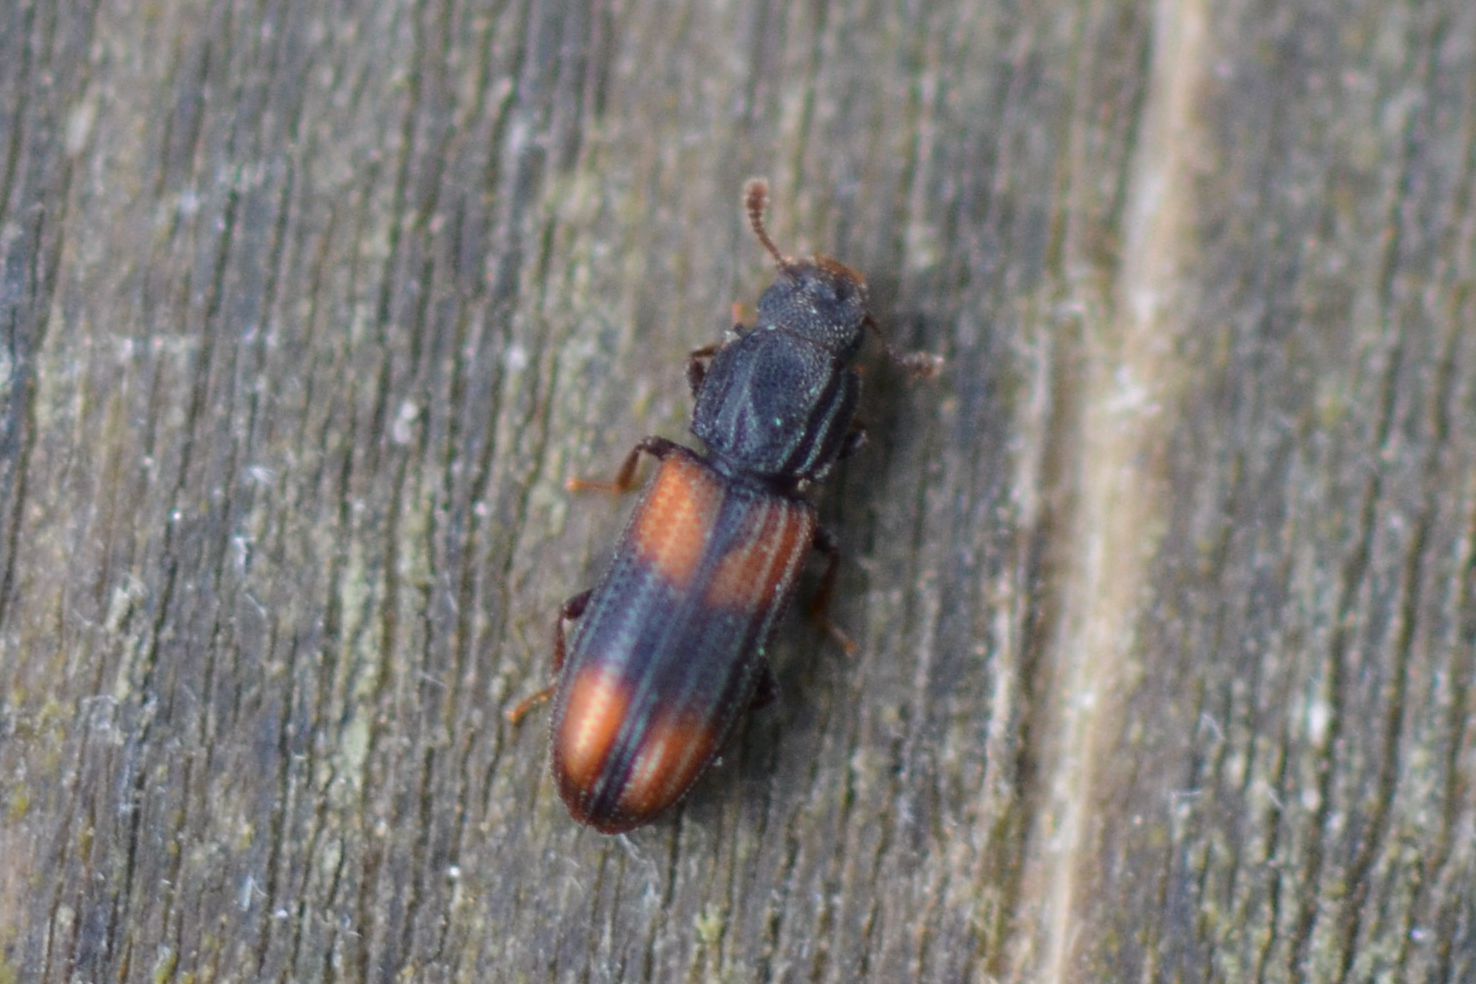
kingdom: Animalia
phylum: Arthropoda
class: Insecta
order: Coleoptera
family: Zopheridae
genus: Bitoma
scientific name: Bitoma crenata
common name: Bark beetle
